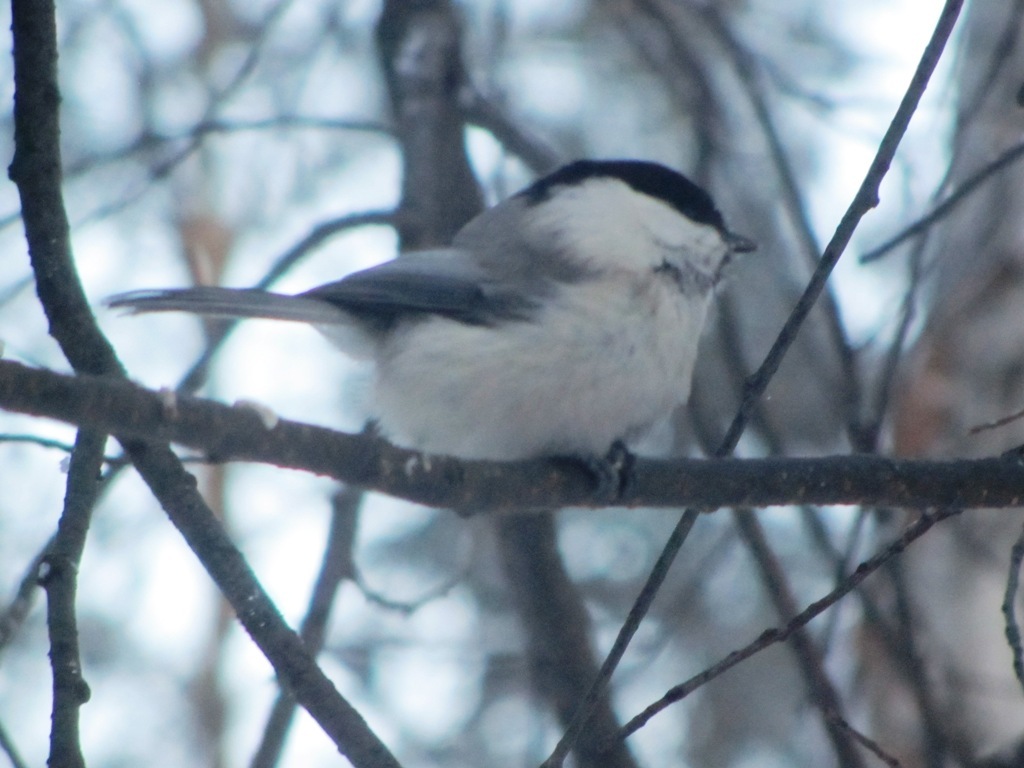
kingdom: Animalia
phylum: Chordata
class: Aves
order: Passeriformes
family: Paridae
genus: Poecile
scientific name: Poecile montanus
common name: Willow tit
